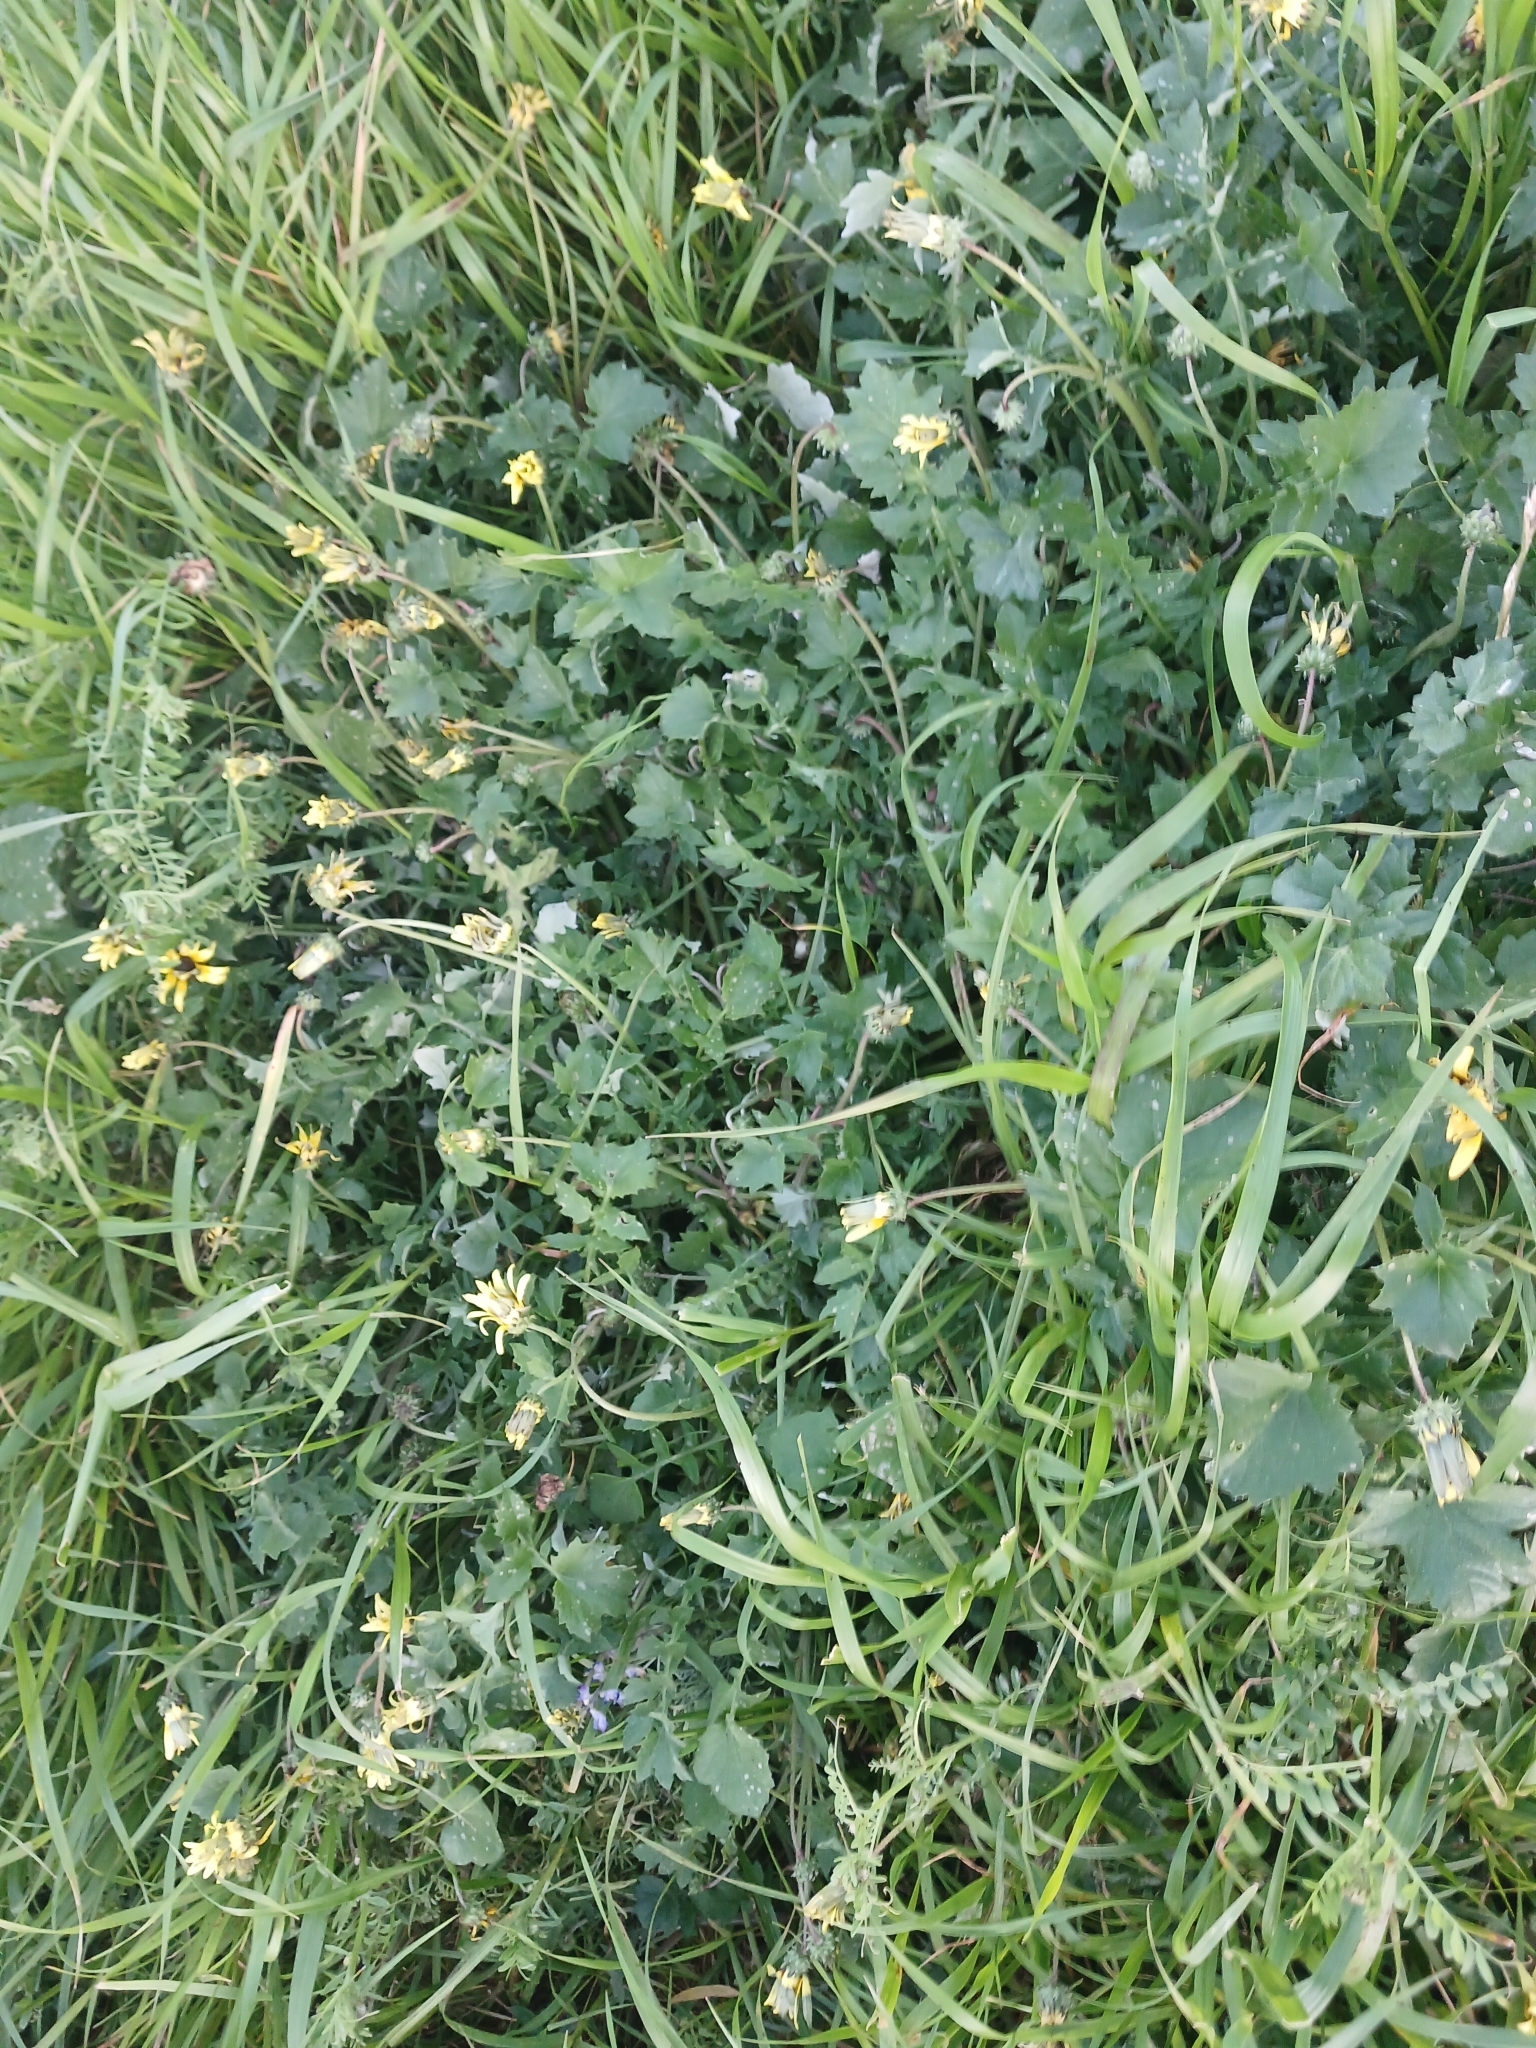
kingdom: Plantae
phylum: Tracheophyta
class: Magnoliopsida
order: Asterales
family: Asteraceae
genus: Arctotheca
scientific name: Arctotheca calendula
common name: Capeweed
